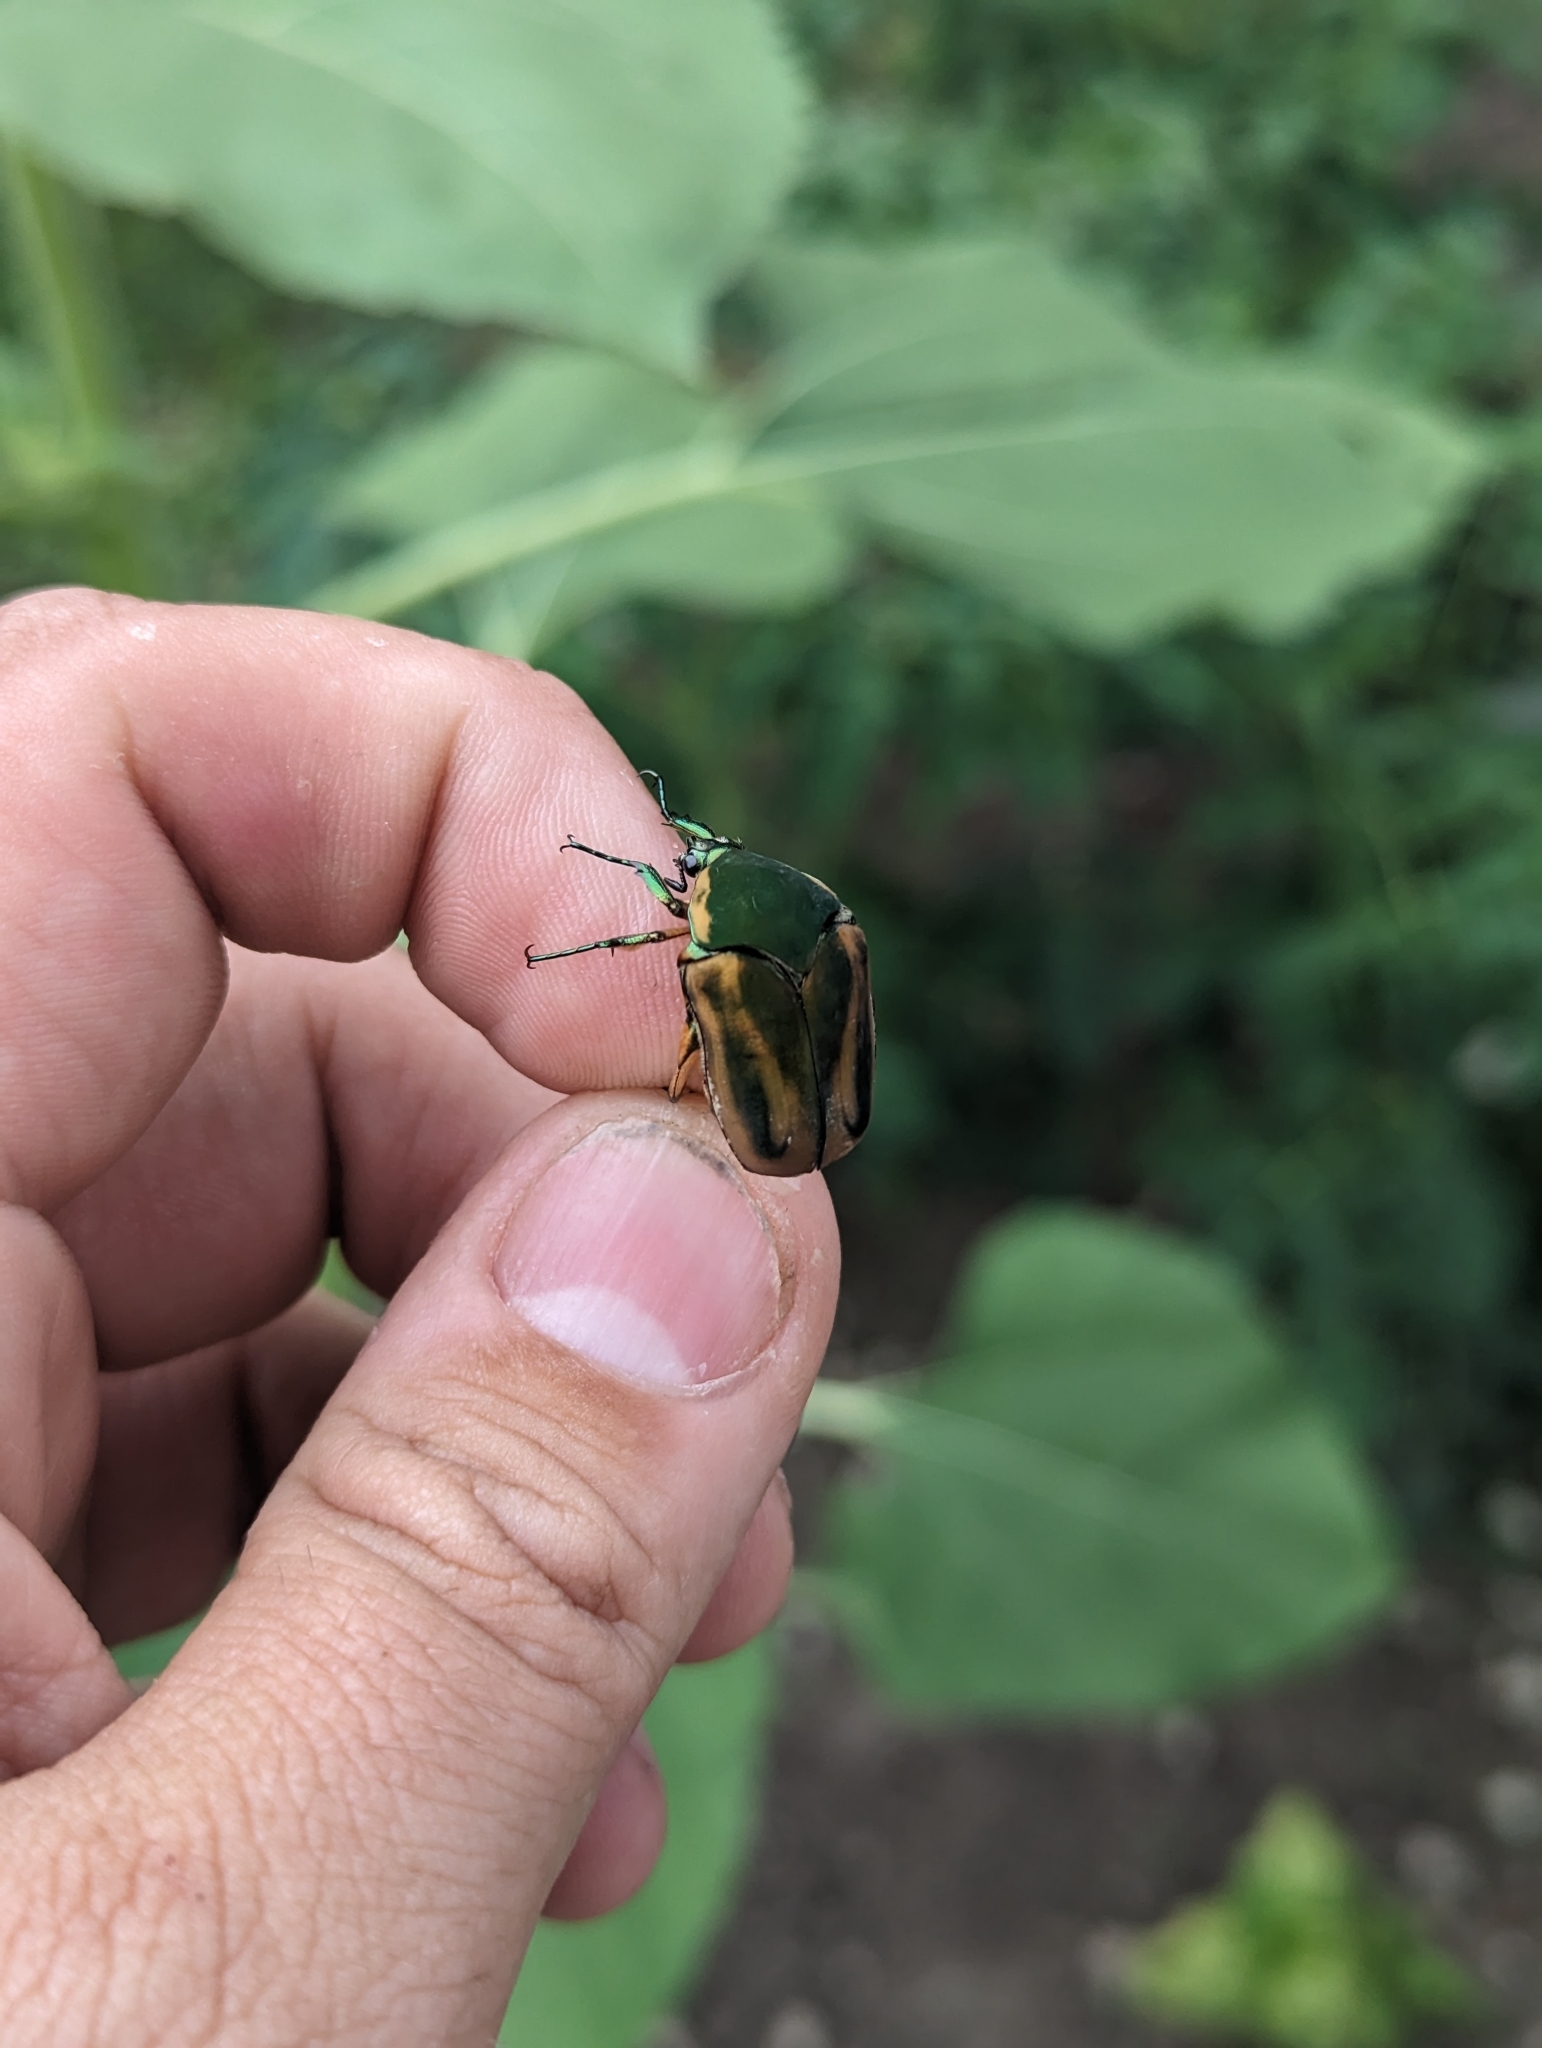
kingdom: Animalia
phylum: Arthropoda
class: Insecta
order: Coleoptera
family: Scarabaeidae
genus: Cotinis
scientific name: Cotinis nitida
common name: Common green june beetle
